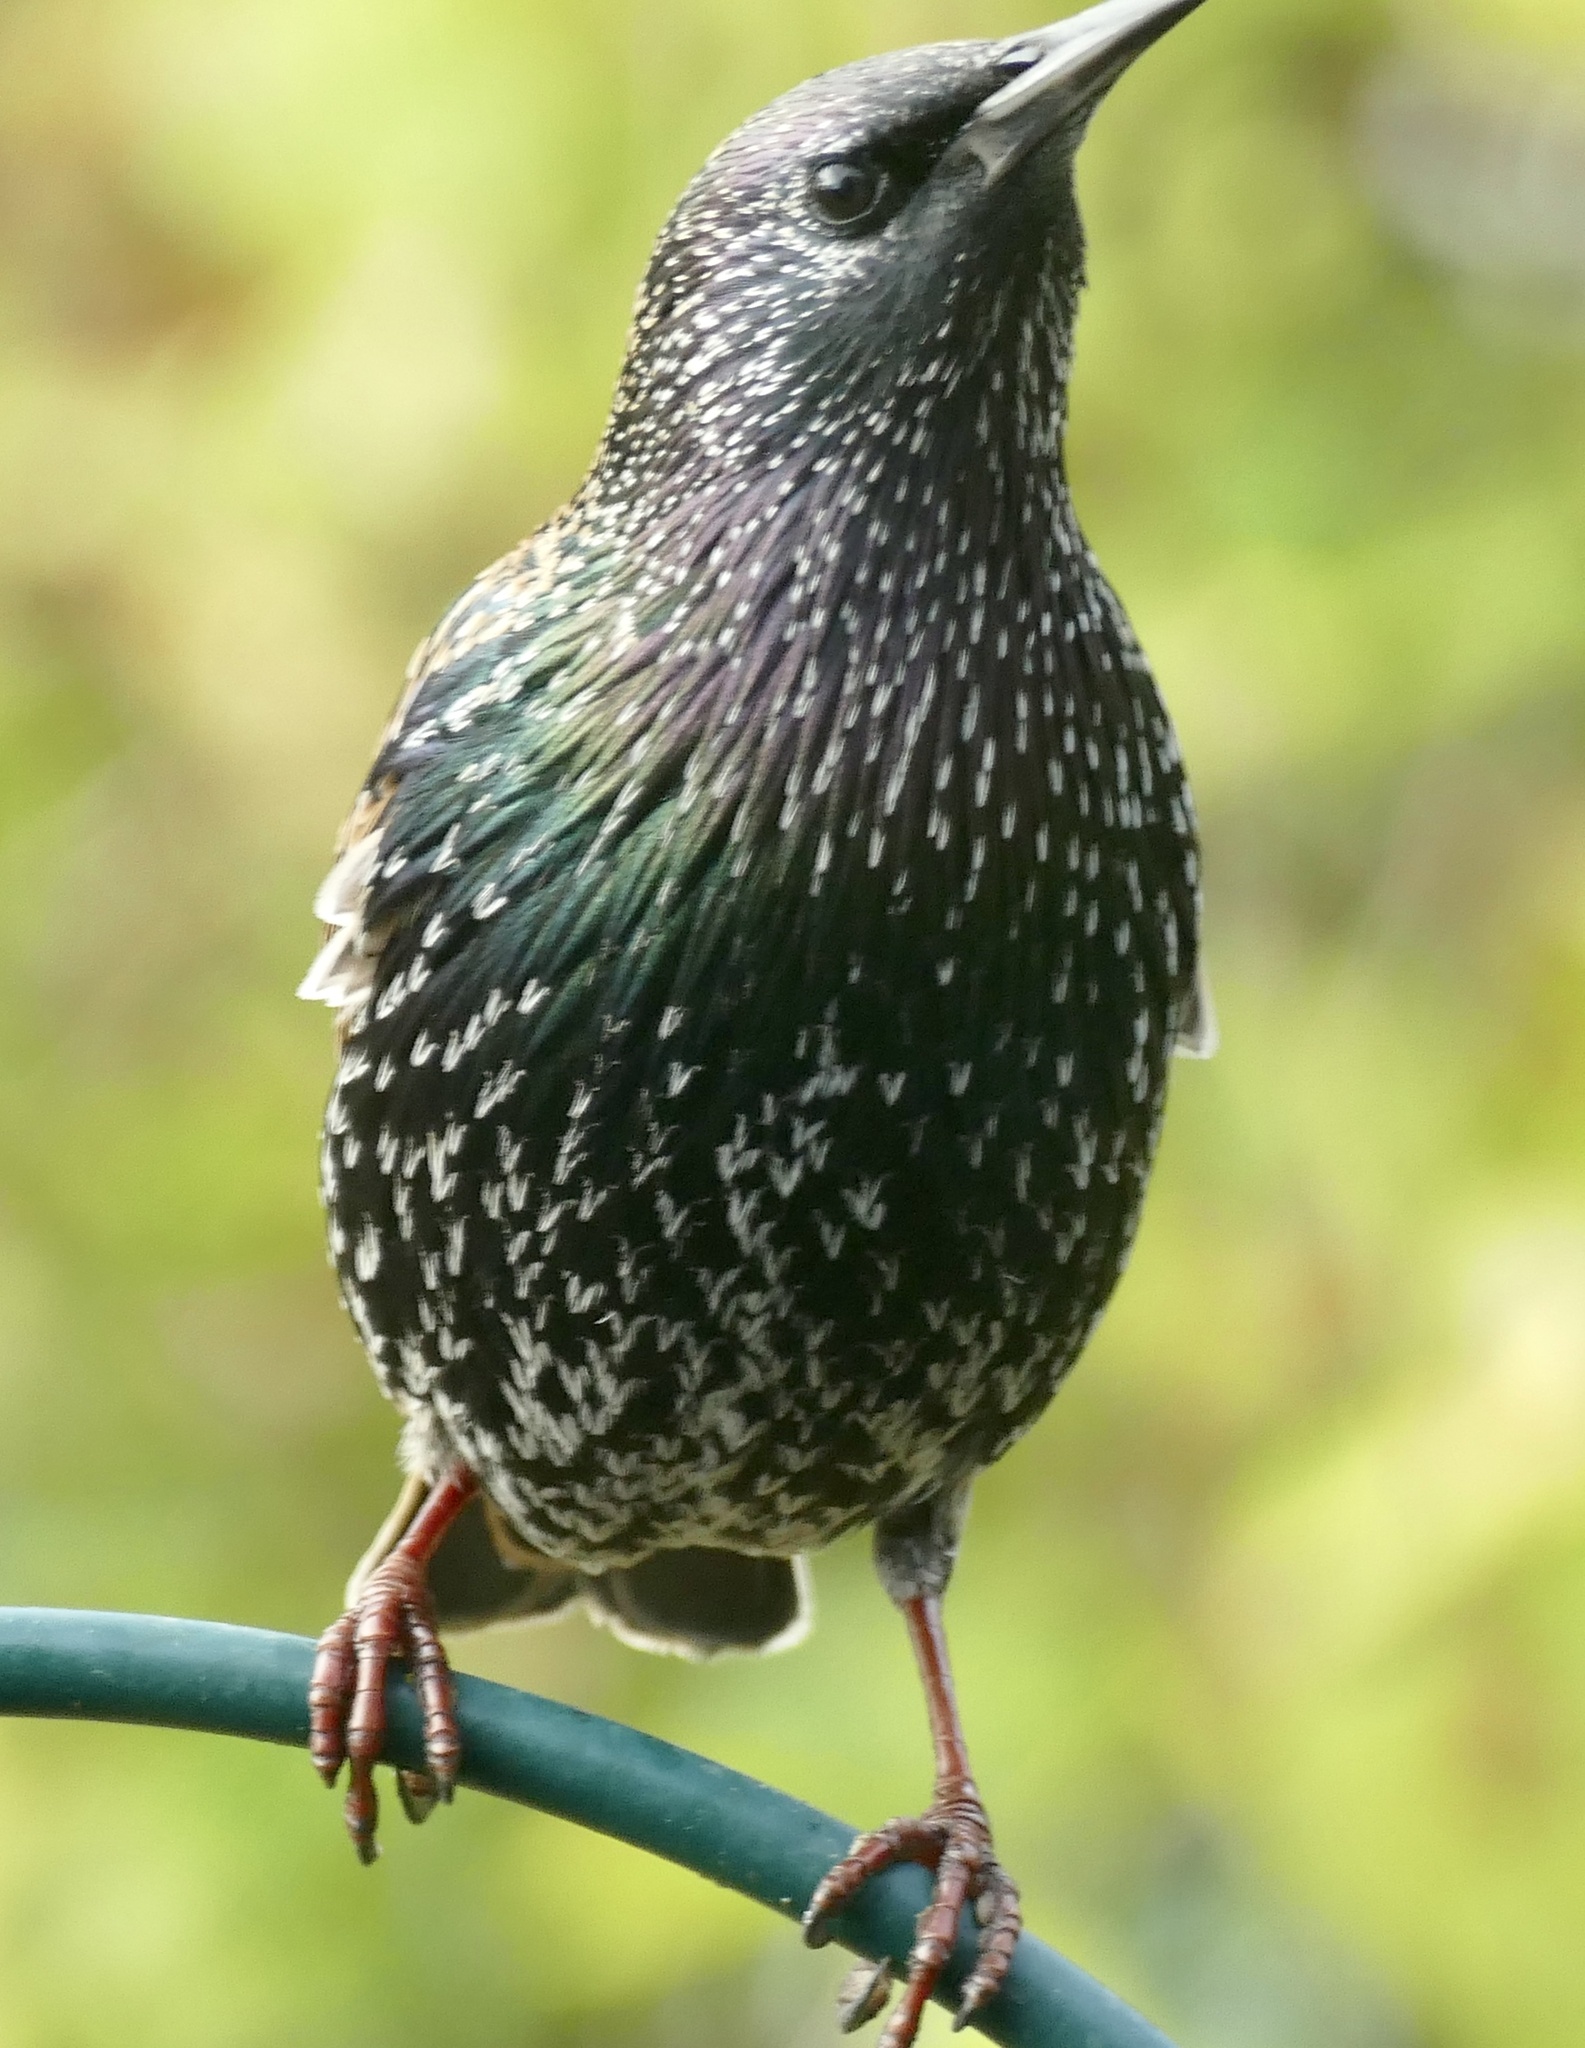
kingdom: Animalia
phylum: Chordata
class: Aves
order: Passeriformes
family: Sturnidae
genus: Sturnus
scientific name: Sturnus vulgaris
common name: Common starling
